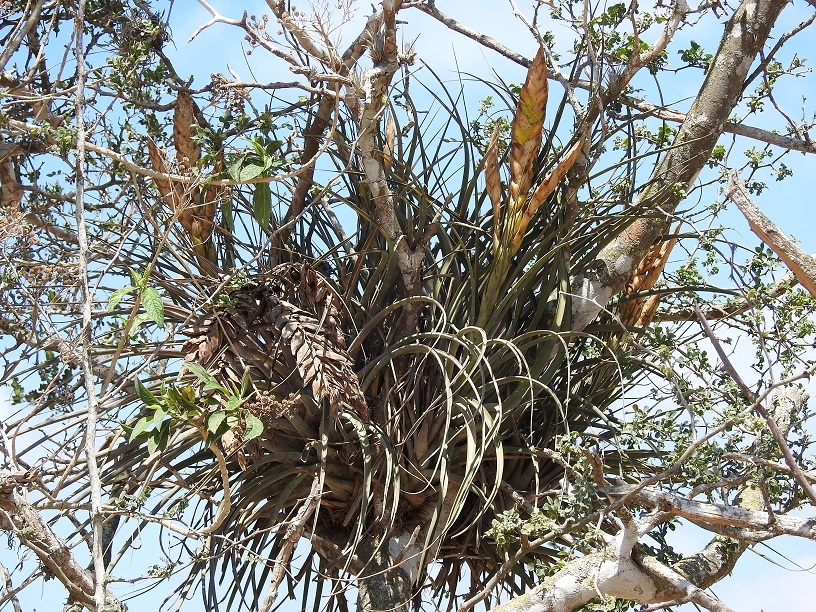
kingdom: Plantae
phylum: Tracheophyta
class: Liliopsida
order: Poales
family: Bromeliaceae
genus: Tillandsia
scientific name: Tillandsia fasciculata
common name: Giant airplant
